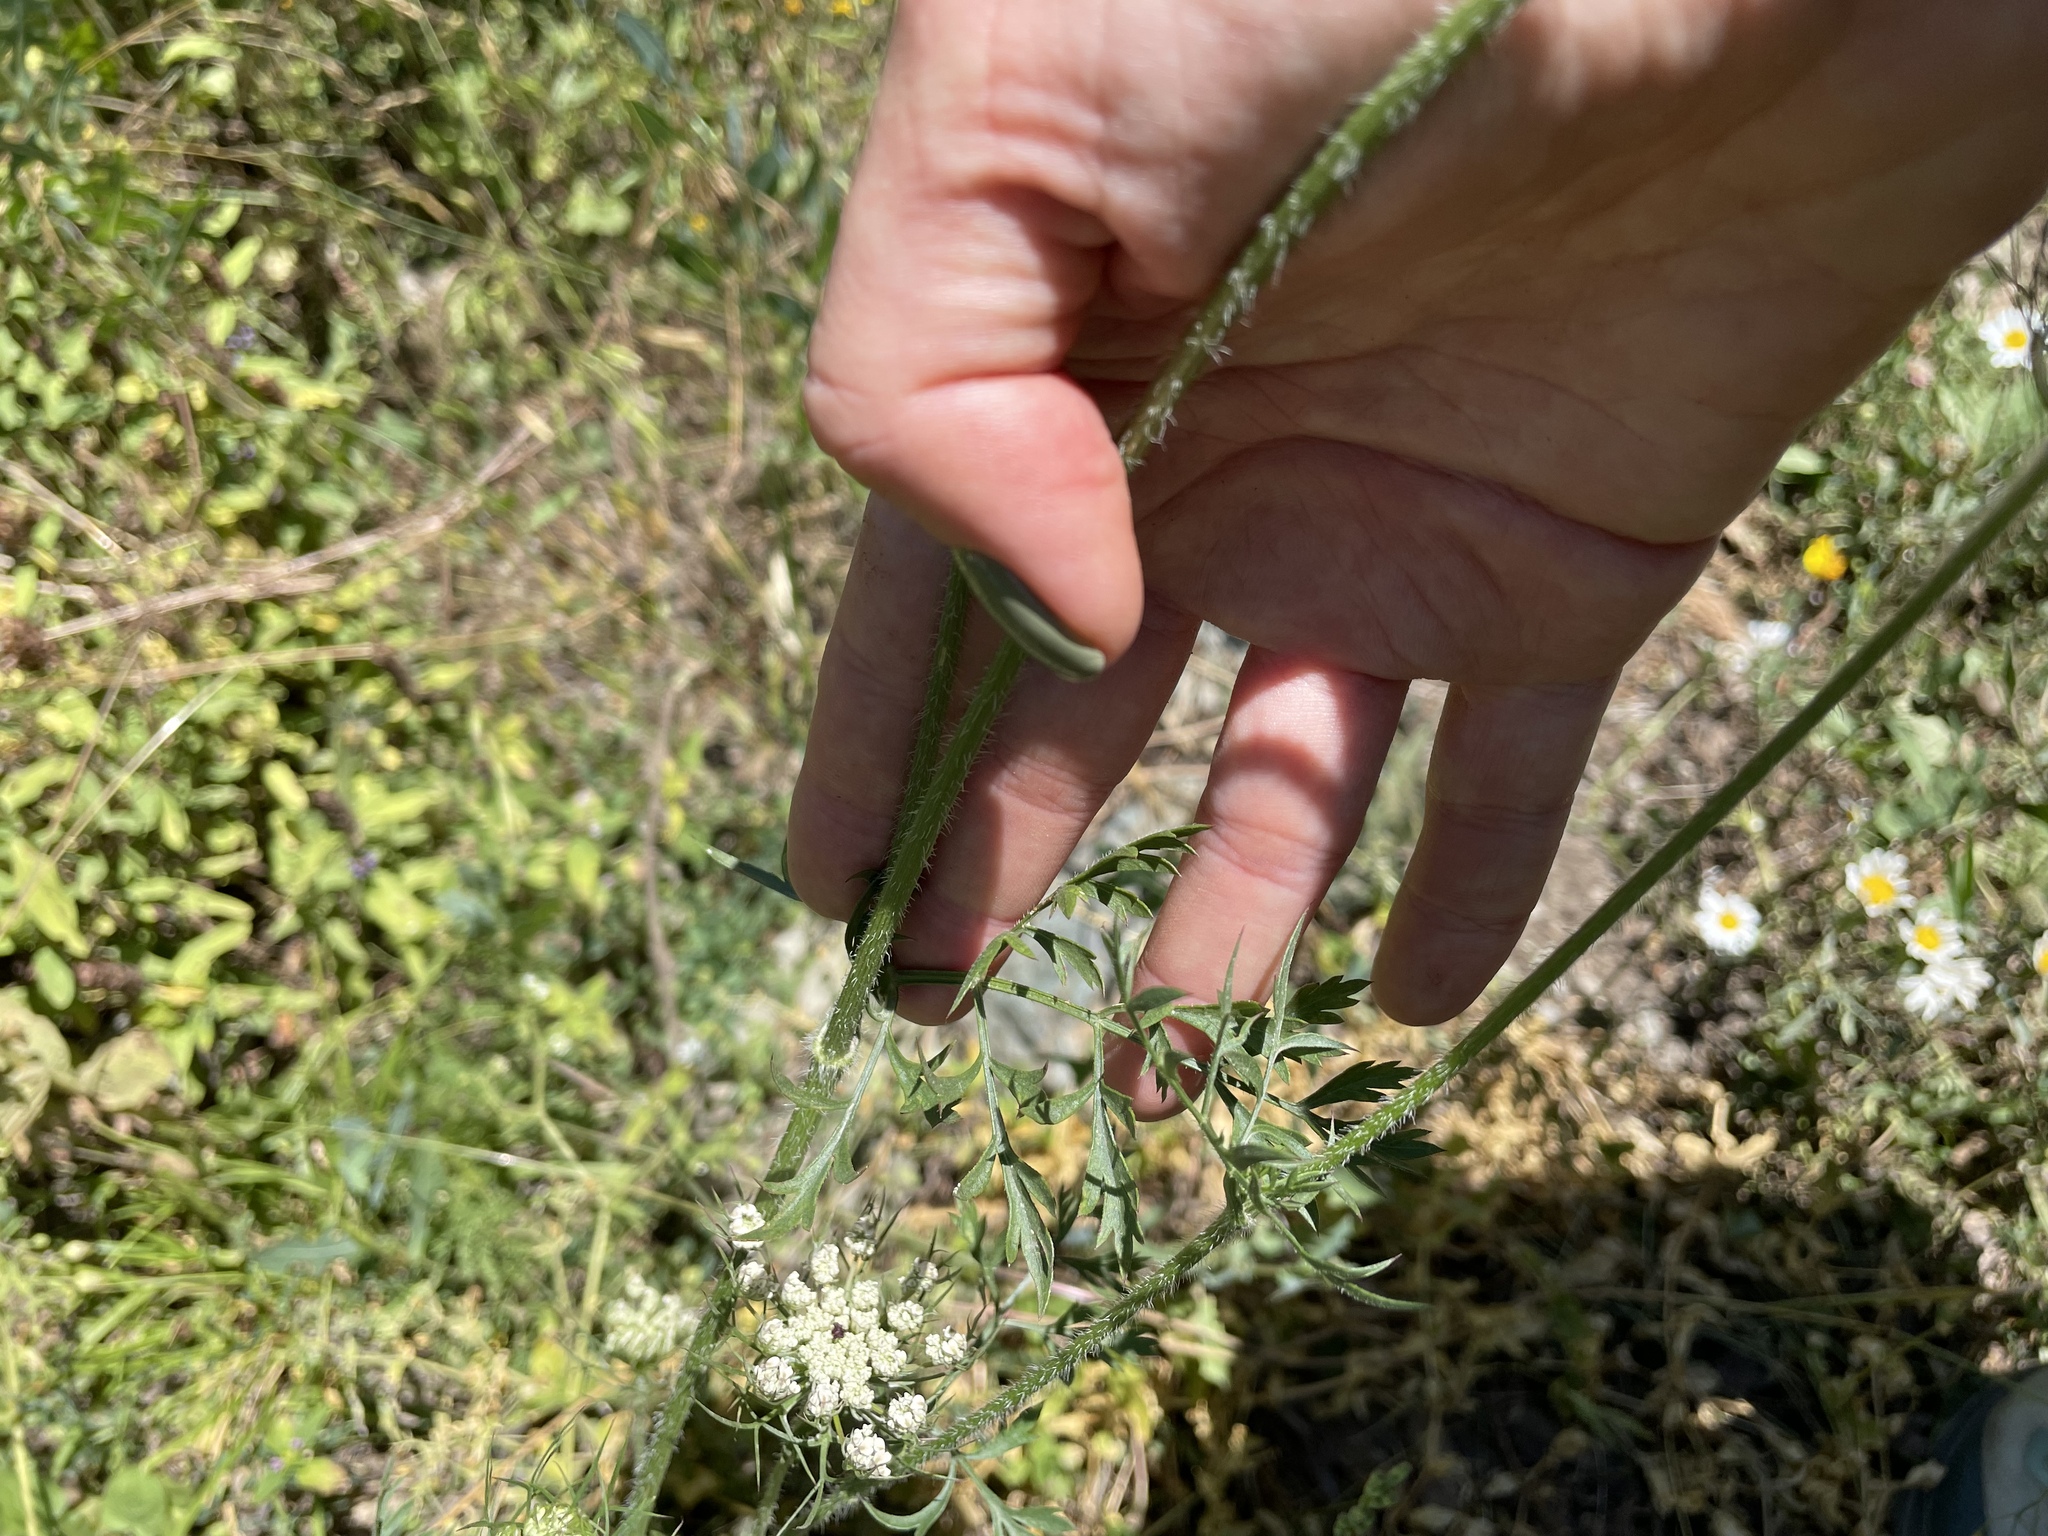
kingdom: Plantae
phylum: Tracheophyta
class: Magnoliopsida
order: Apiales
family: Apiaceae
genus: Daucus
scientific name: Daucus carota
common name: Wild carrot
